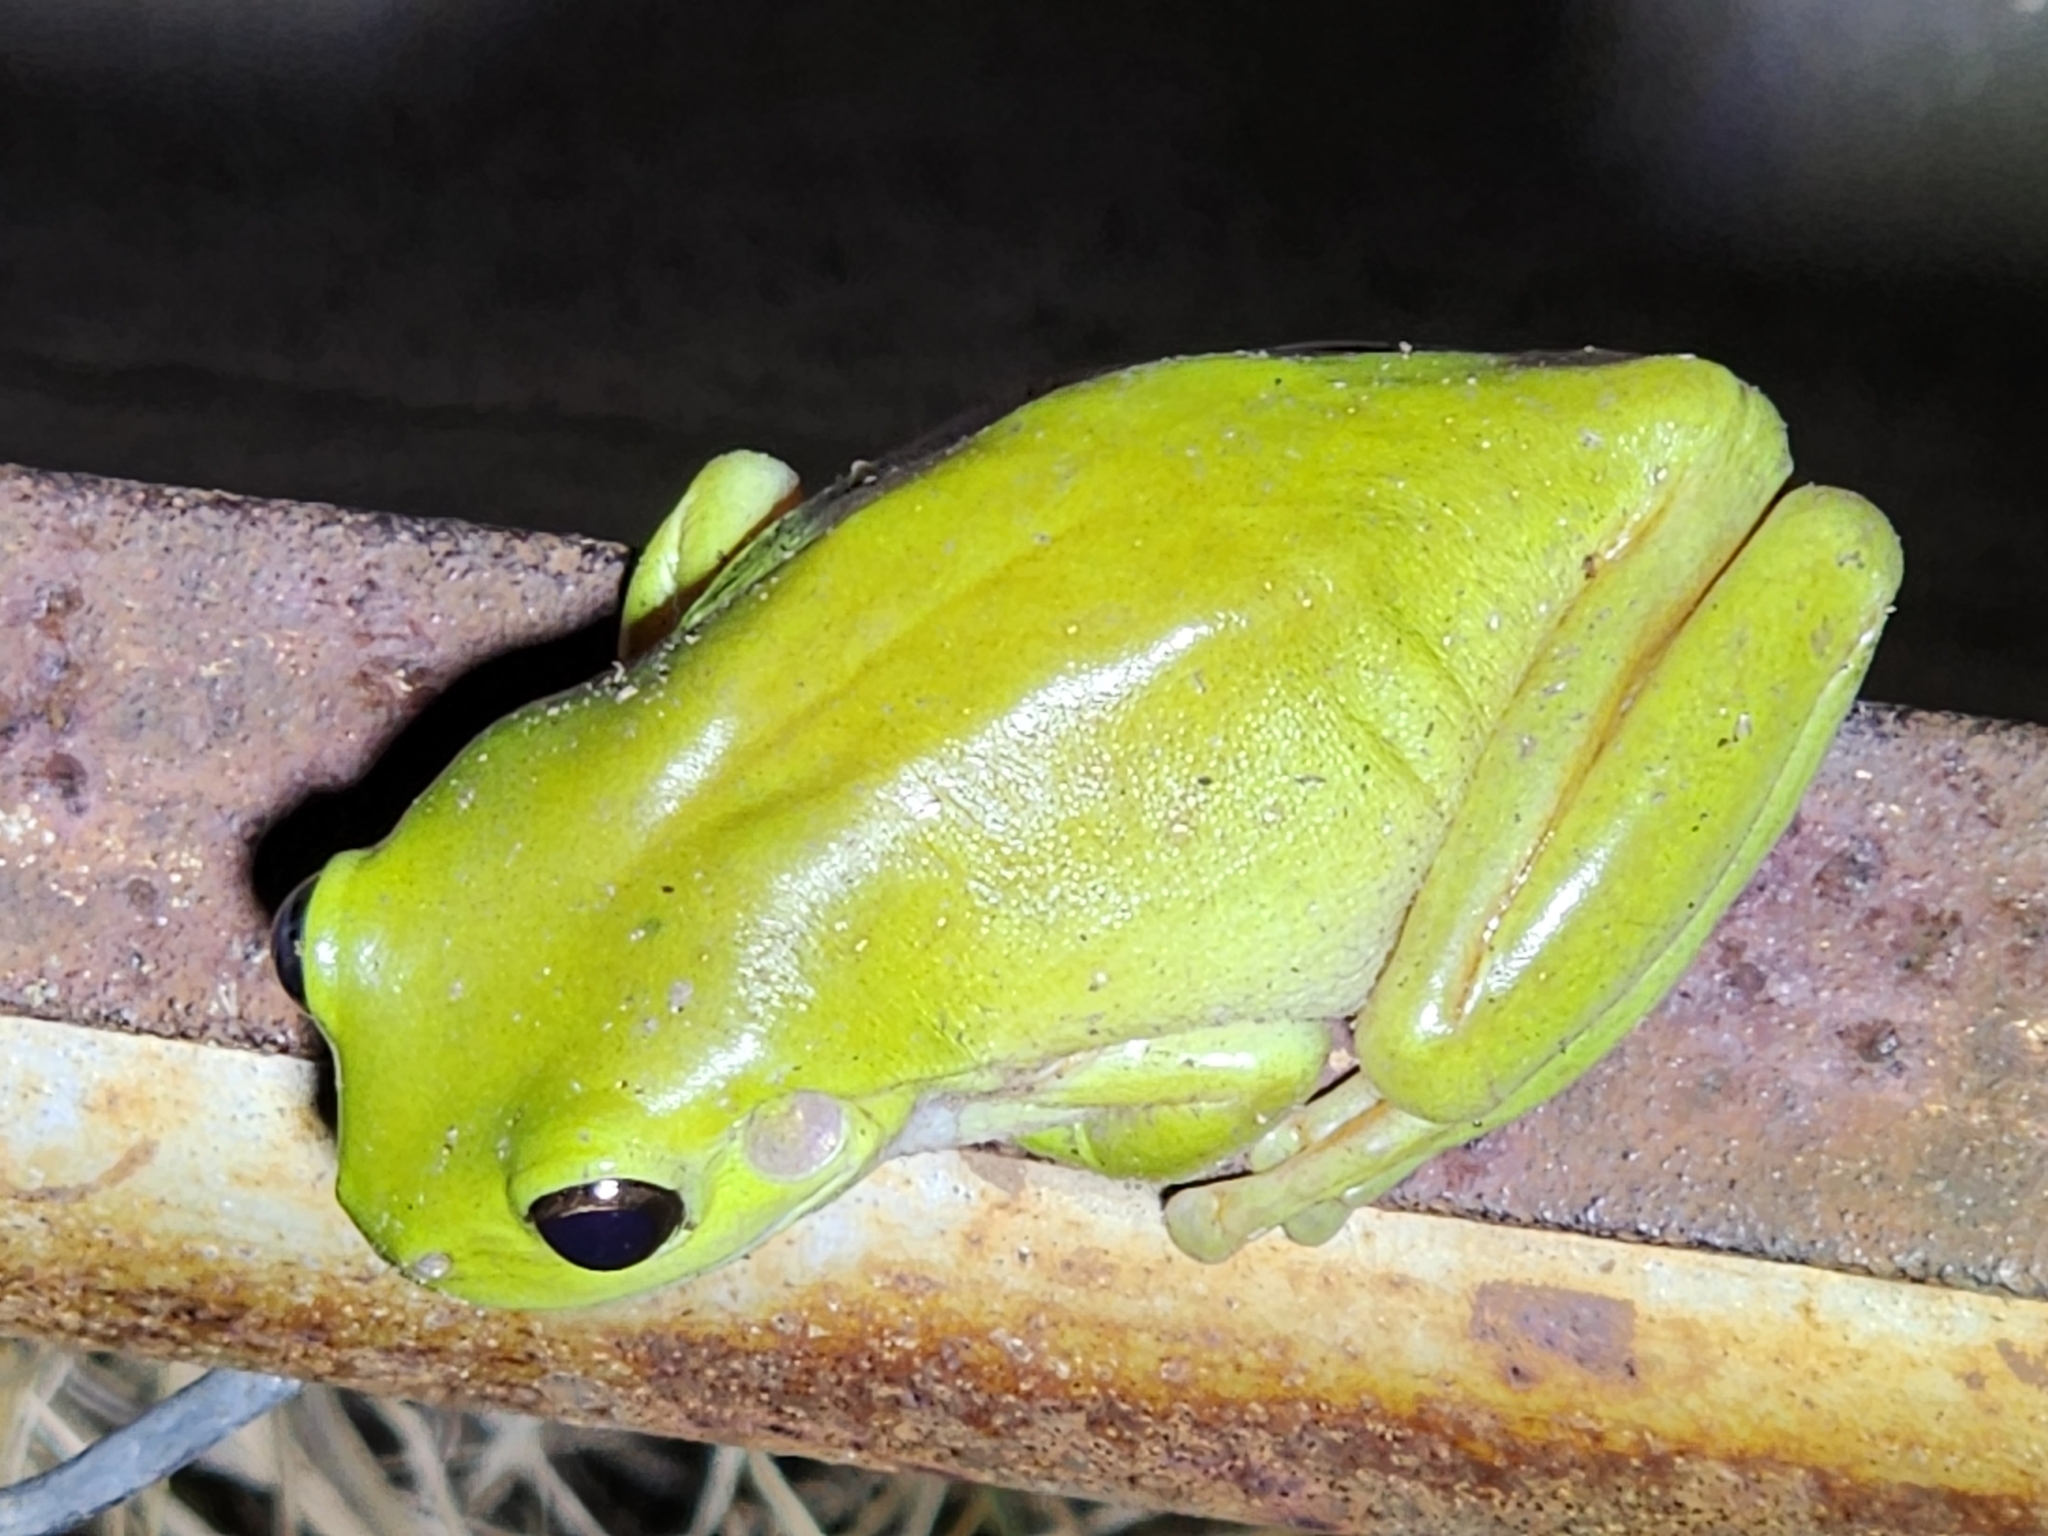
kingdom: Animalia
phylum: Chordata
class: Amphibia
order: Anura
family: Pelodryadidae
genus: Ranoidea
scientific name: Ranoidea caerulea
